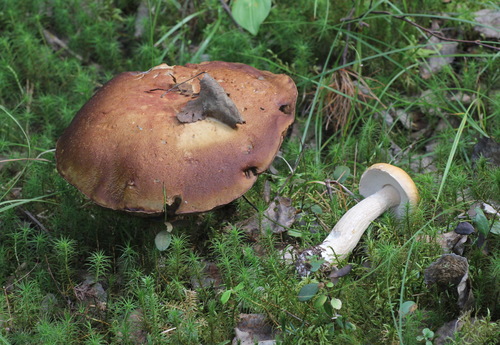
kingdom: Fungi
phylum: Basidiomycota
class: Agaricomycetes
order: Boletales
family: Boletaceae
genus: Boletus
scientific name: Boletus edulis
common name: Cep
